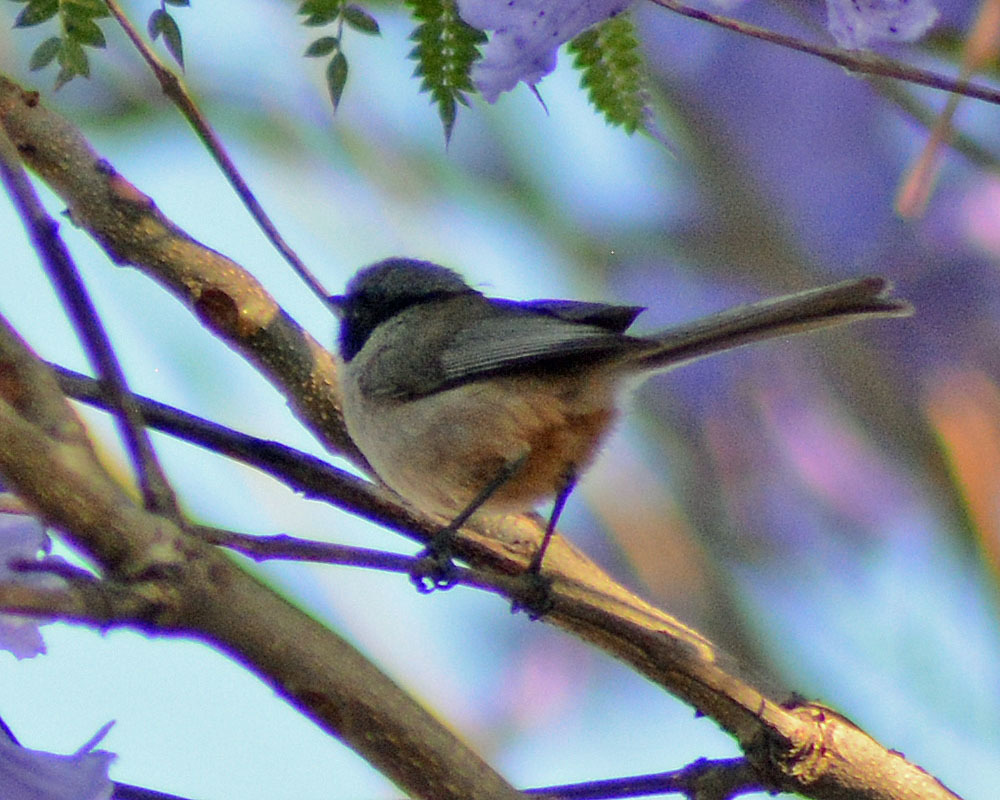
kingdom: Animalia
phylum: Chordata
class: Aves
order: Passeriformes
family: Aegithalidae
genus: Psaltriparus
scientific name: Psaltriparus minimus
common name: American bushtit
